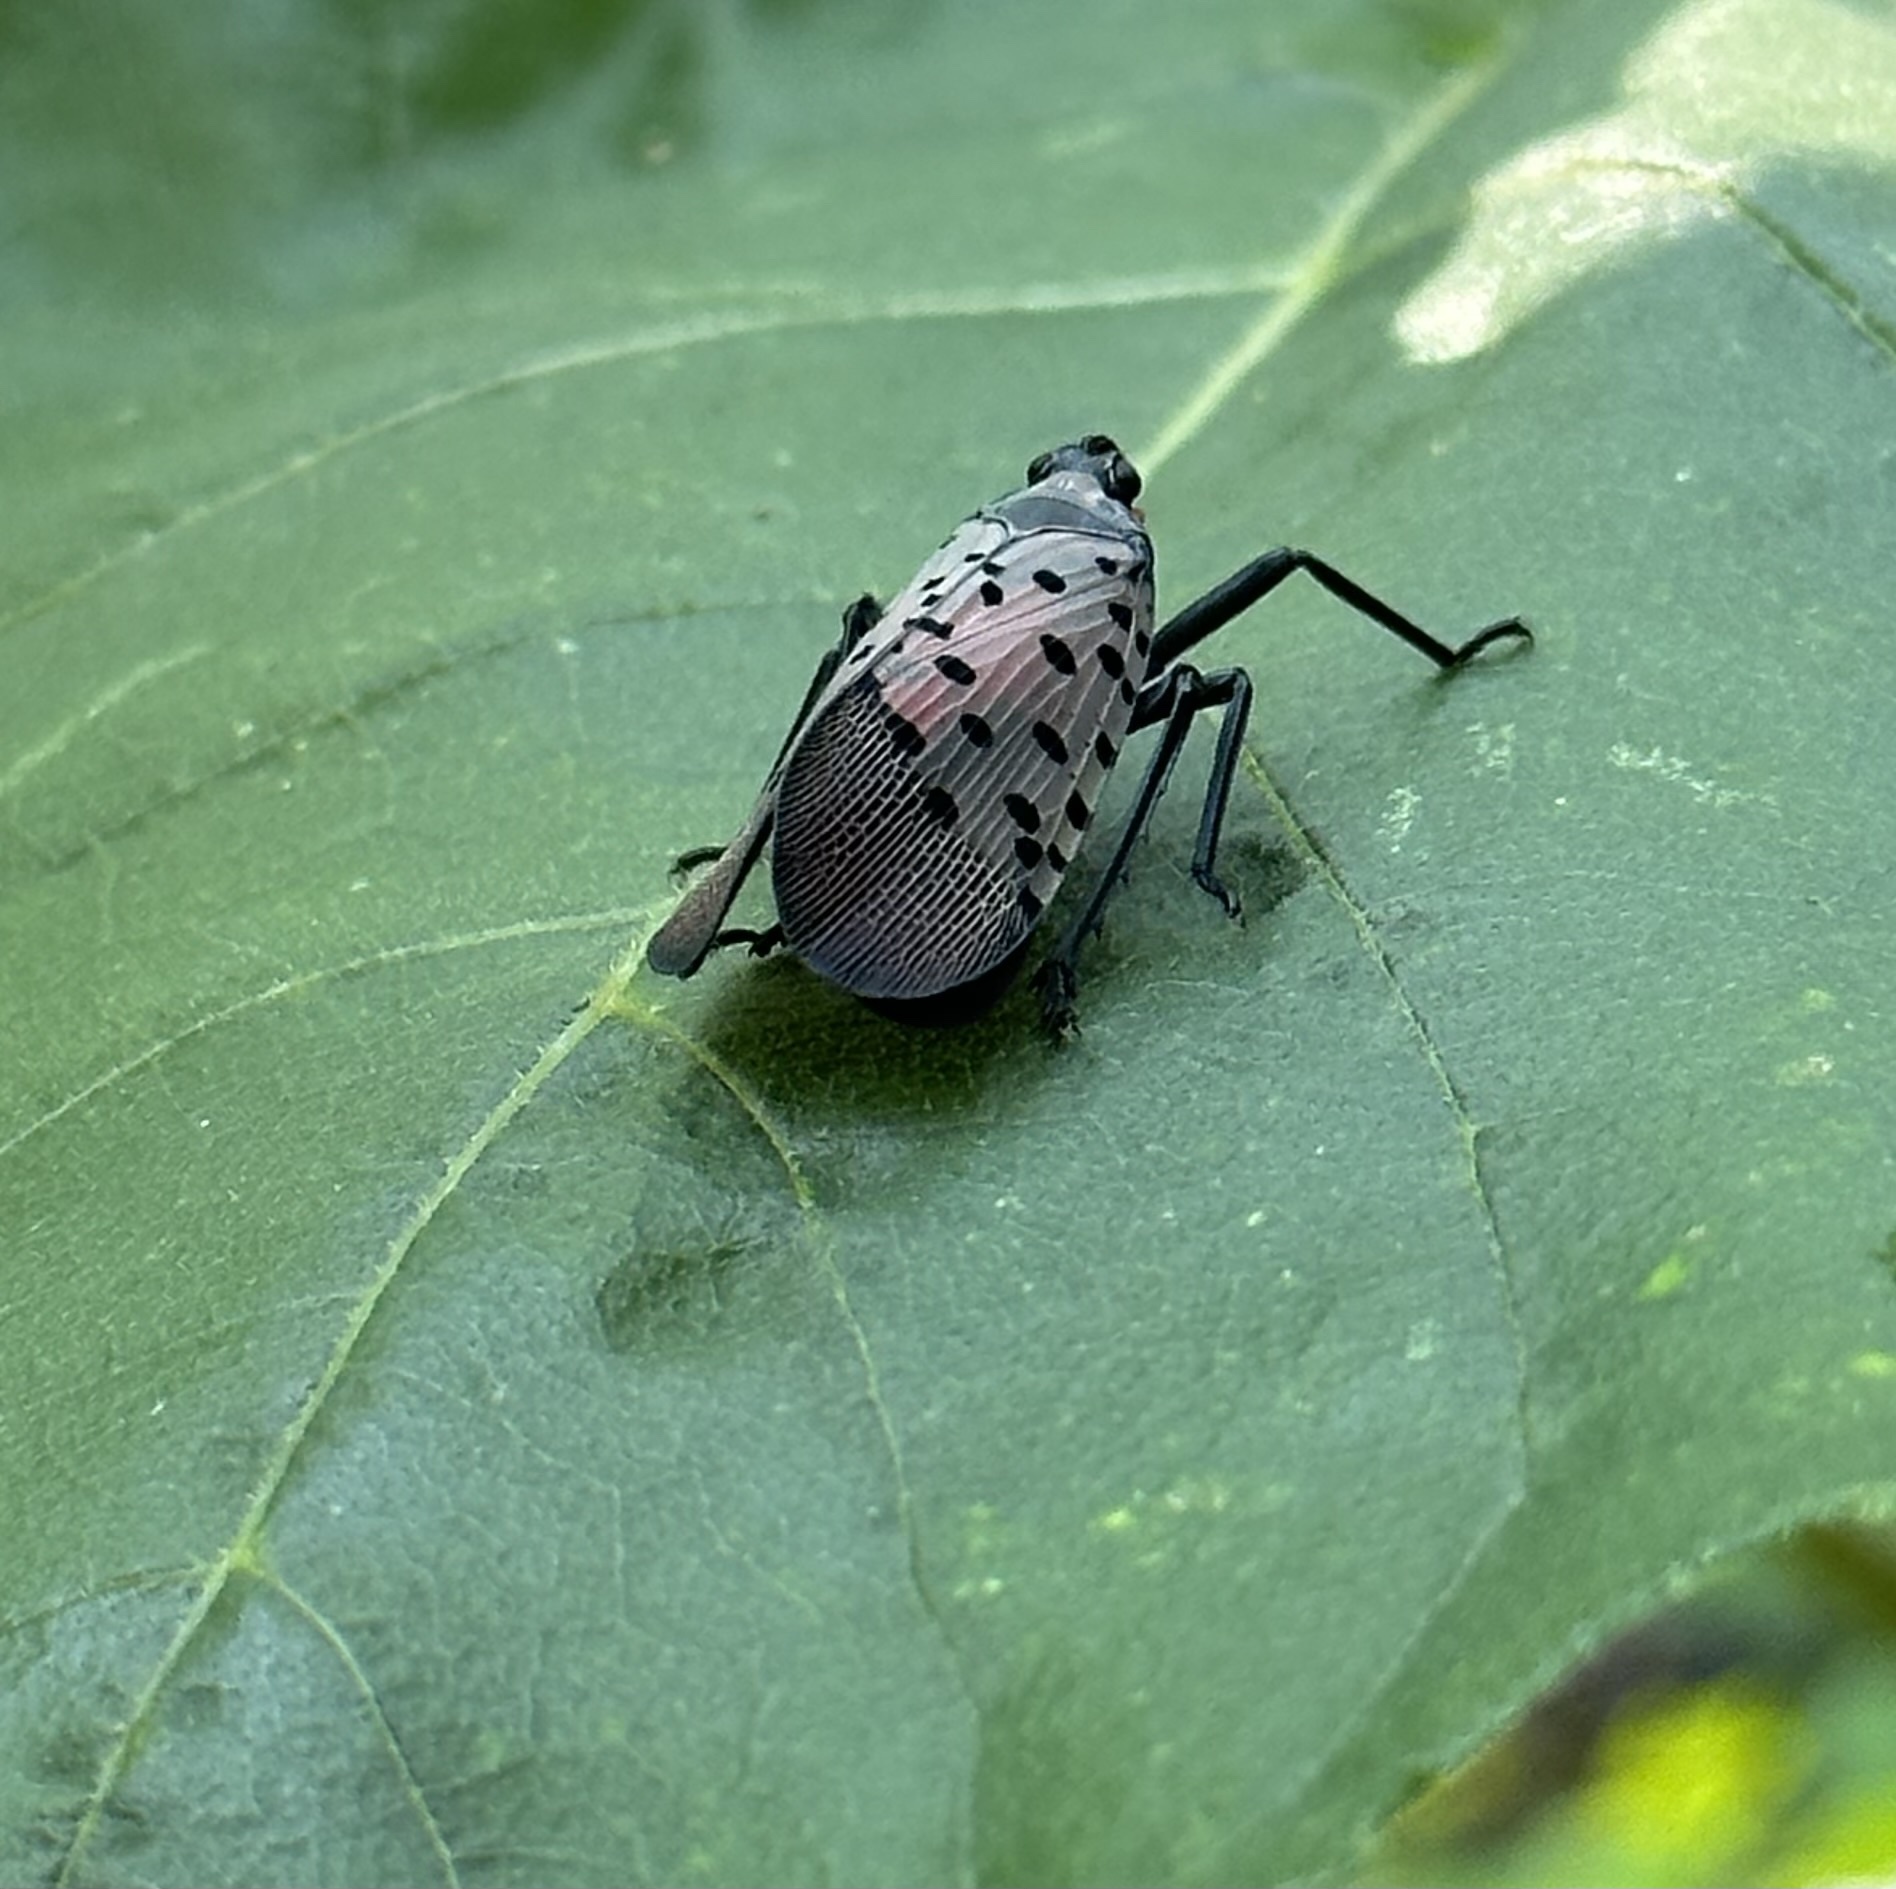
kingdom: Animalia
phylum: Arthropoda
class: Insecta
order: Hemiptera
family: Fulgoridae
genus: Lycorma
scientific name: Lycorma delicatula
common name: Spotted lanternfly
